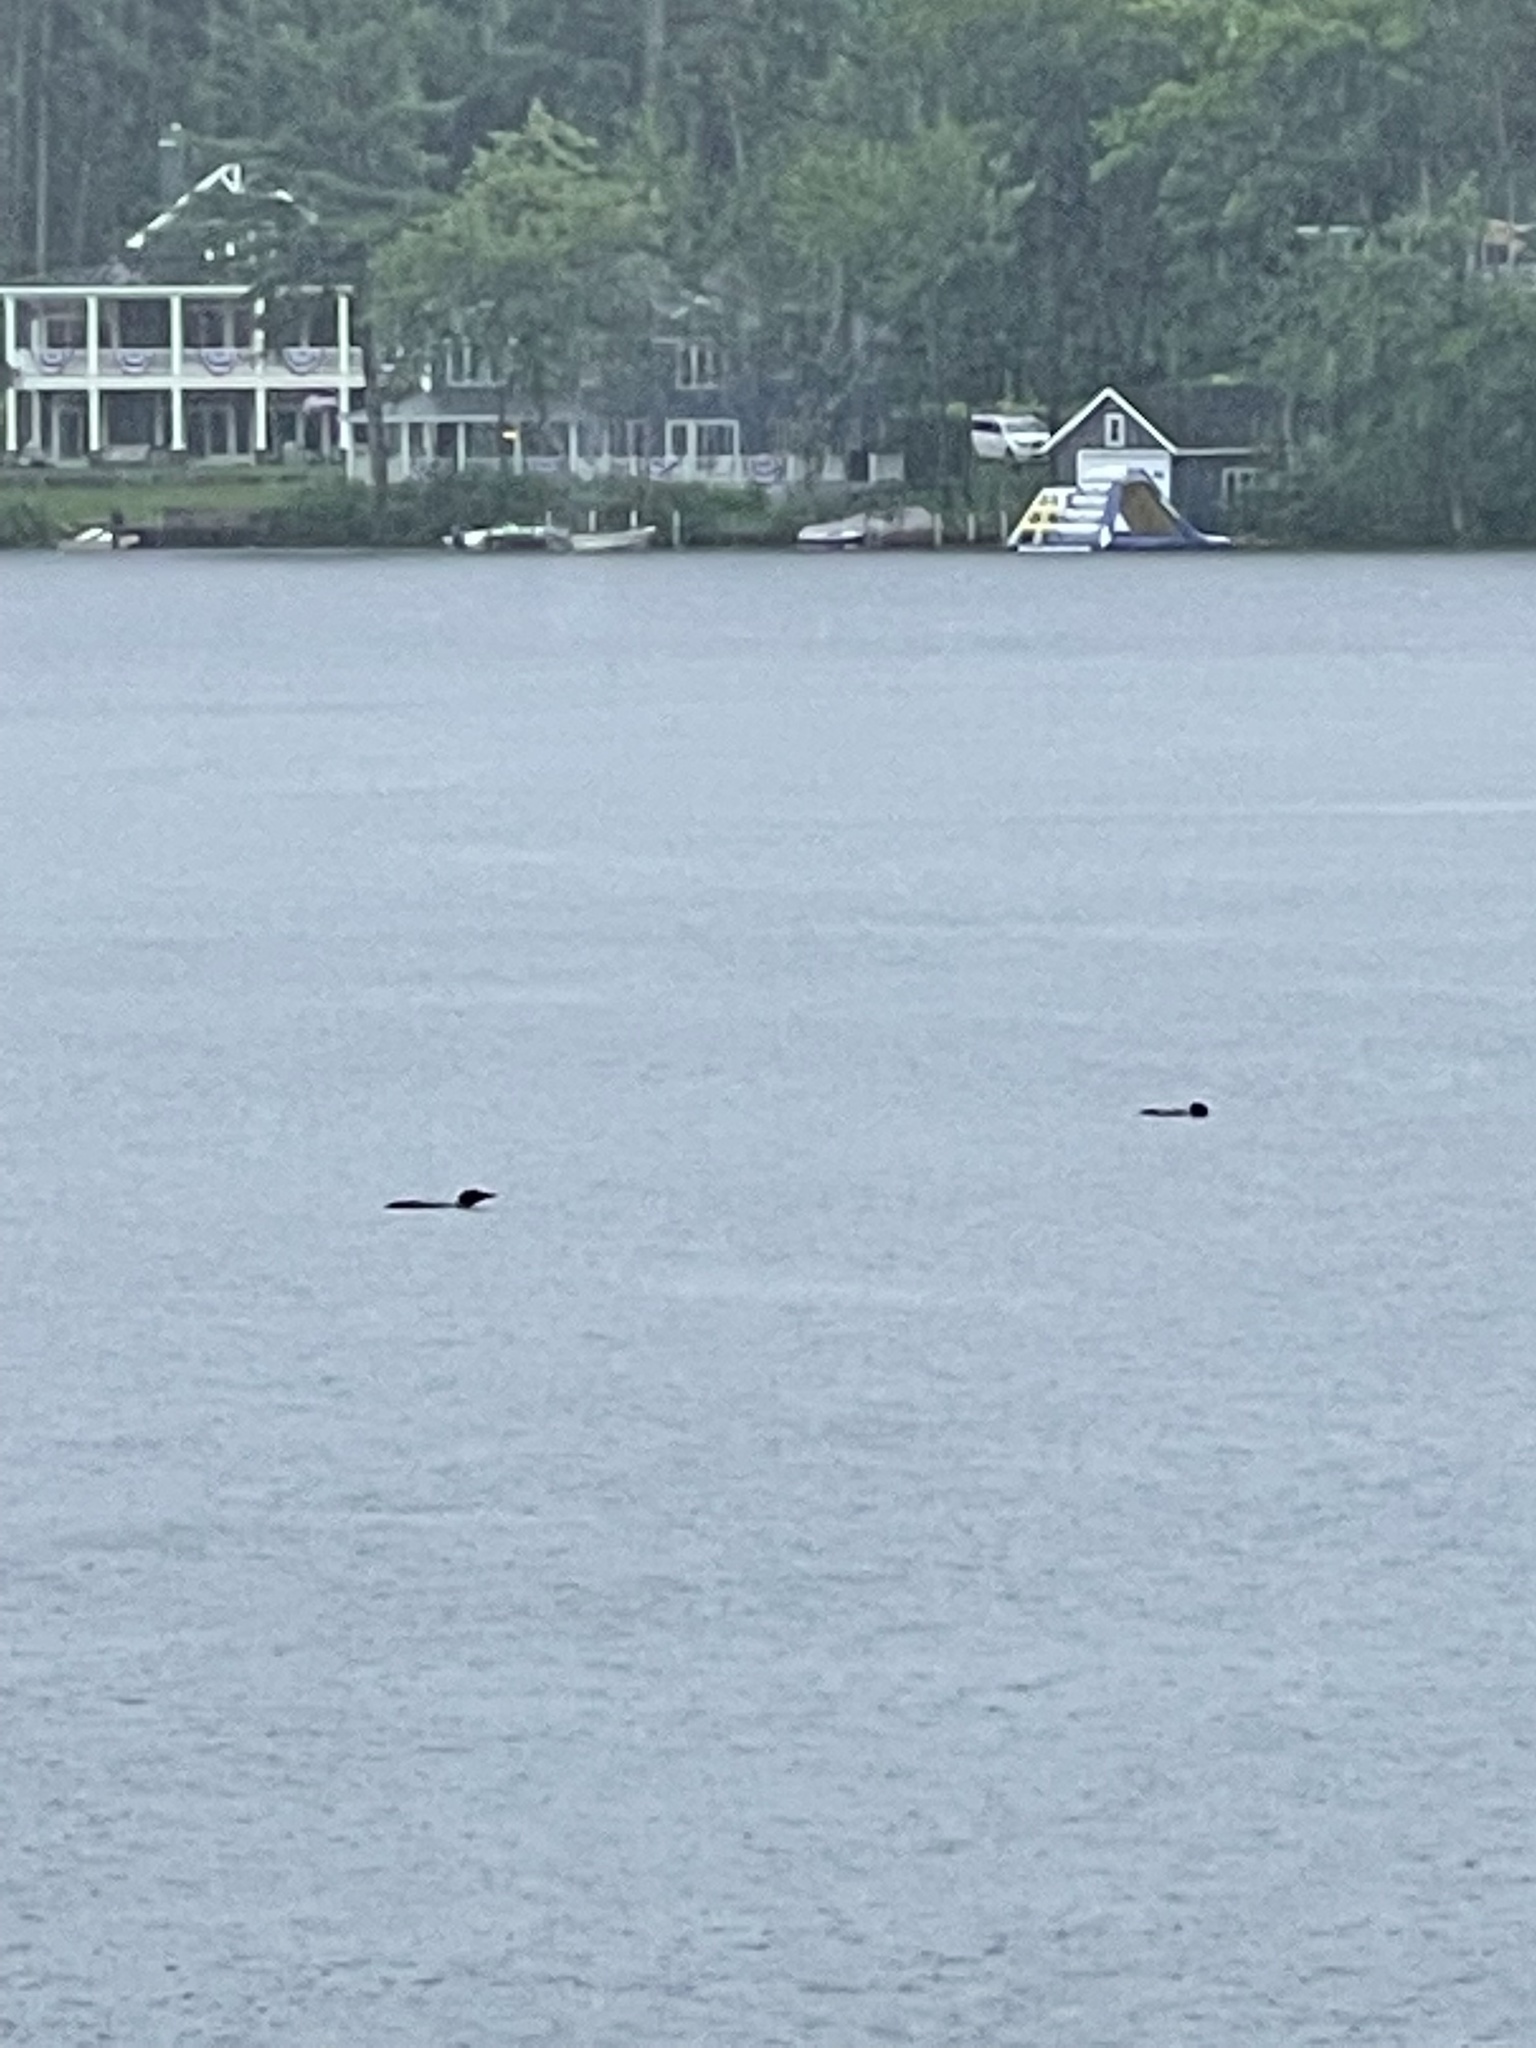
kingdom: Animalia
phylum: Chordata
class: Aves
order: Gaviiformes
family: Gaviidae
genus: Gavia
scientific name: Gavia immer
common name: Common loon
